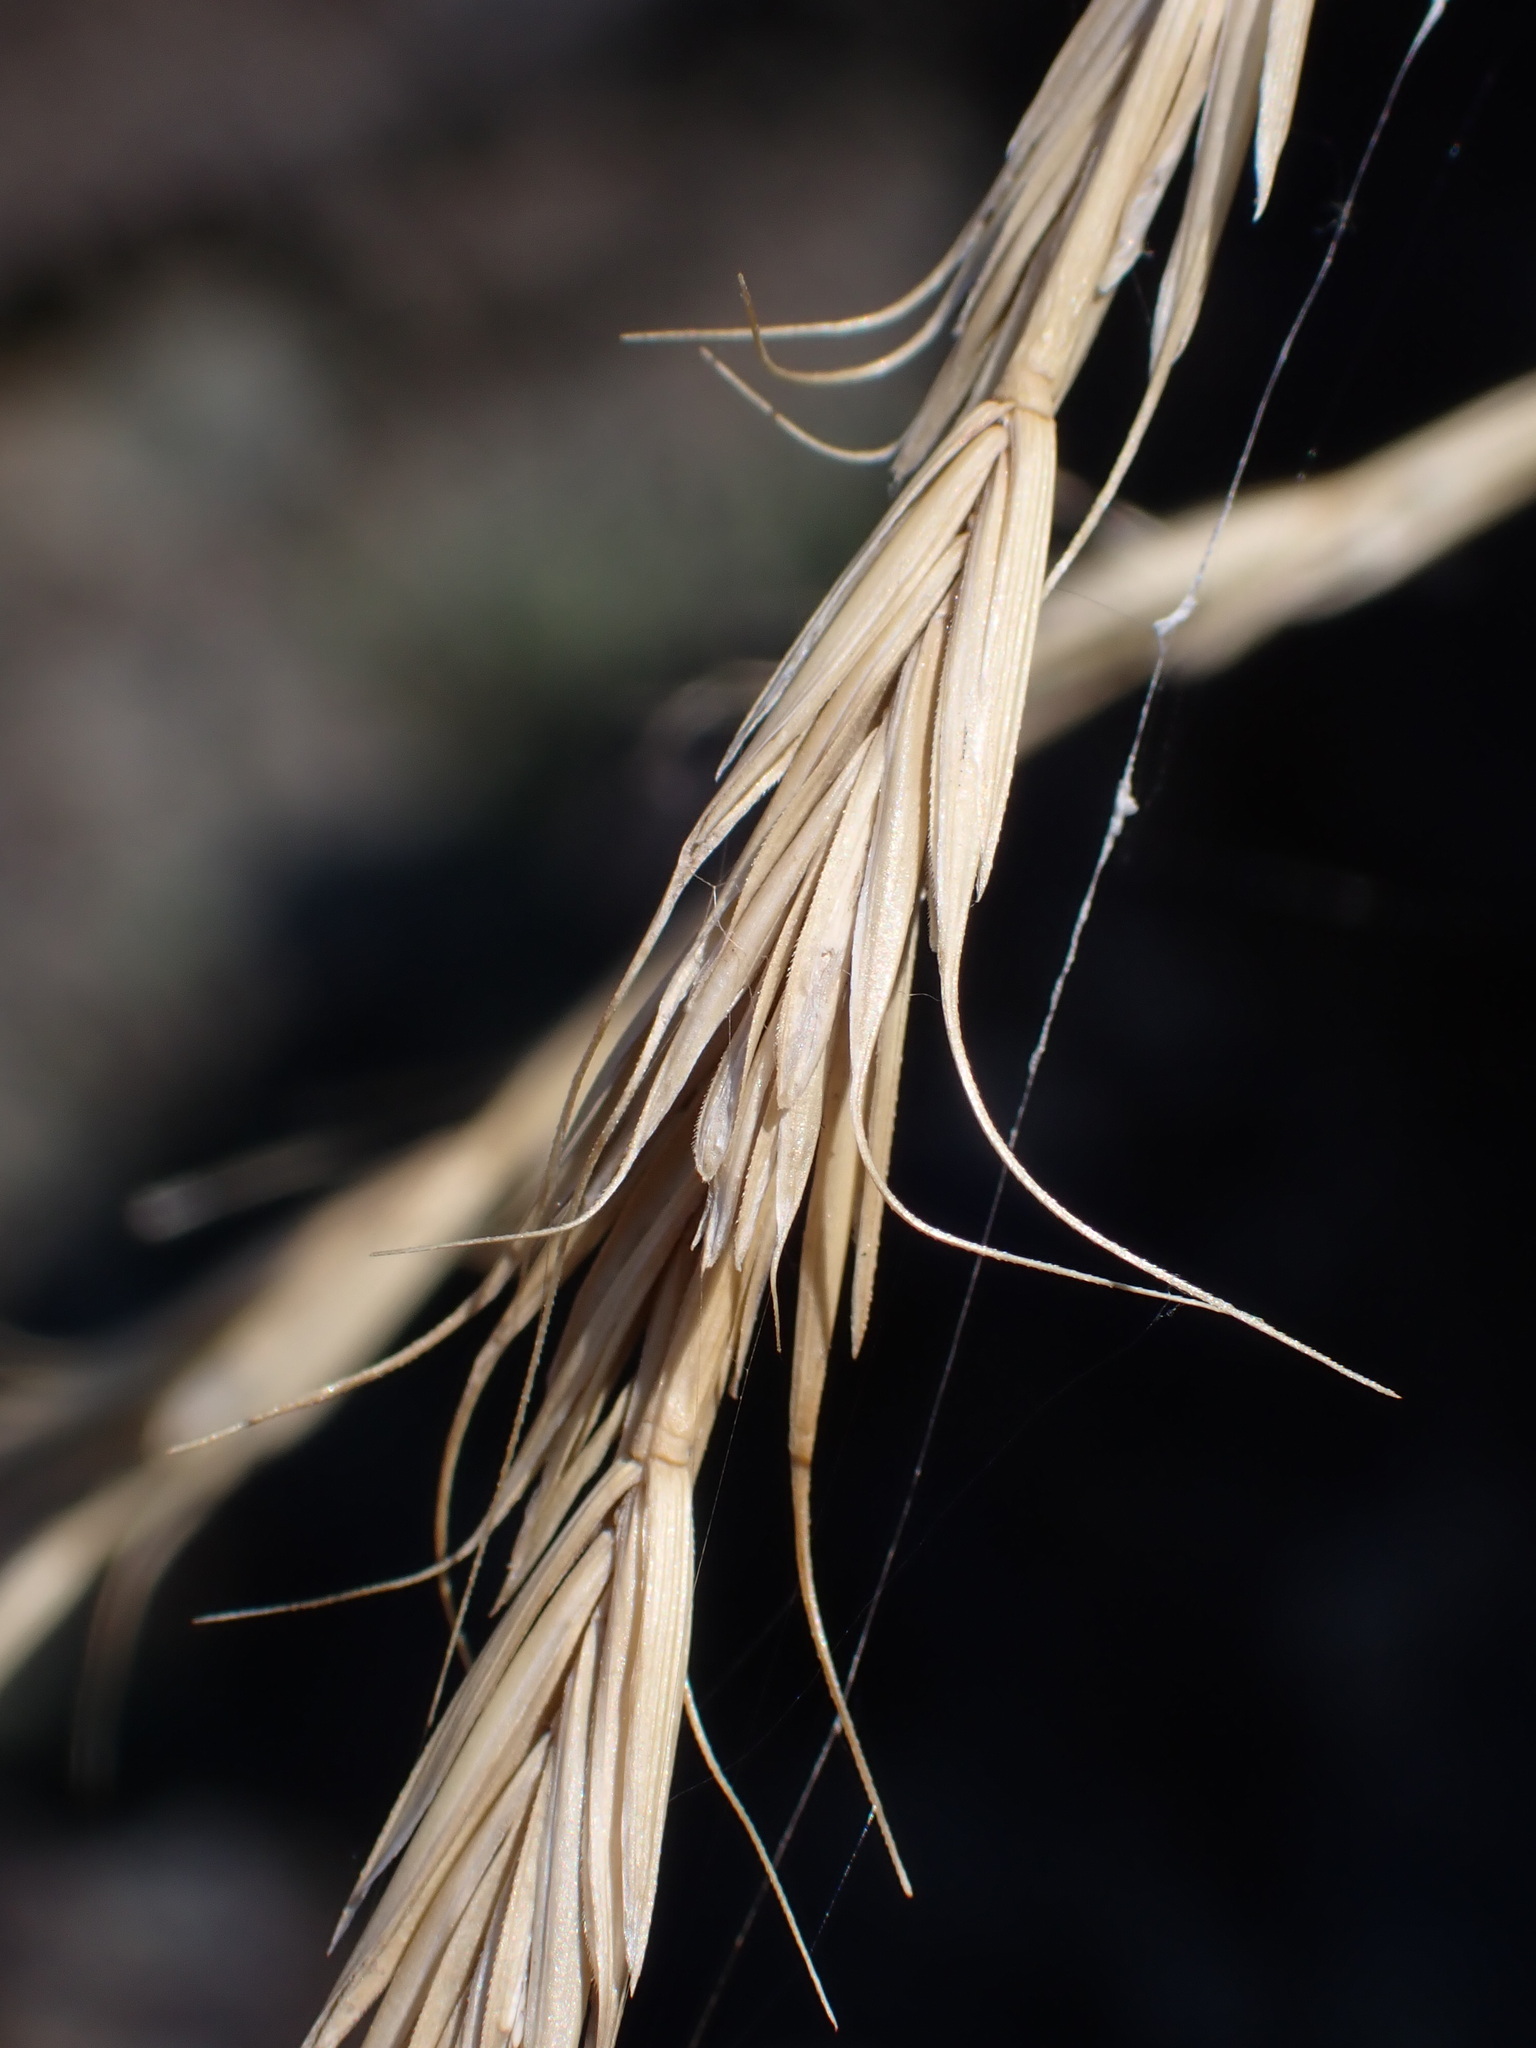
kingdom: Plantae
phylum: Tracheophyta
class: Liliopsida
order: Poales
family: Poaceae
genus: Pseudoroegneria
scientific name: Pseudoroegneria spicata
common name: Bluebunch wheatgrass
